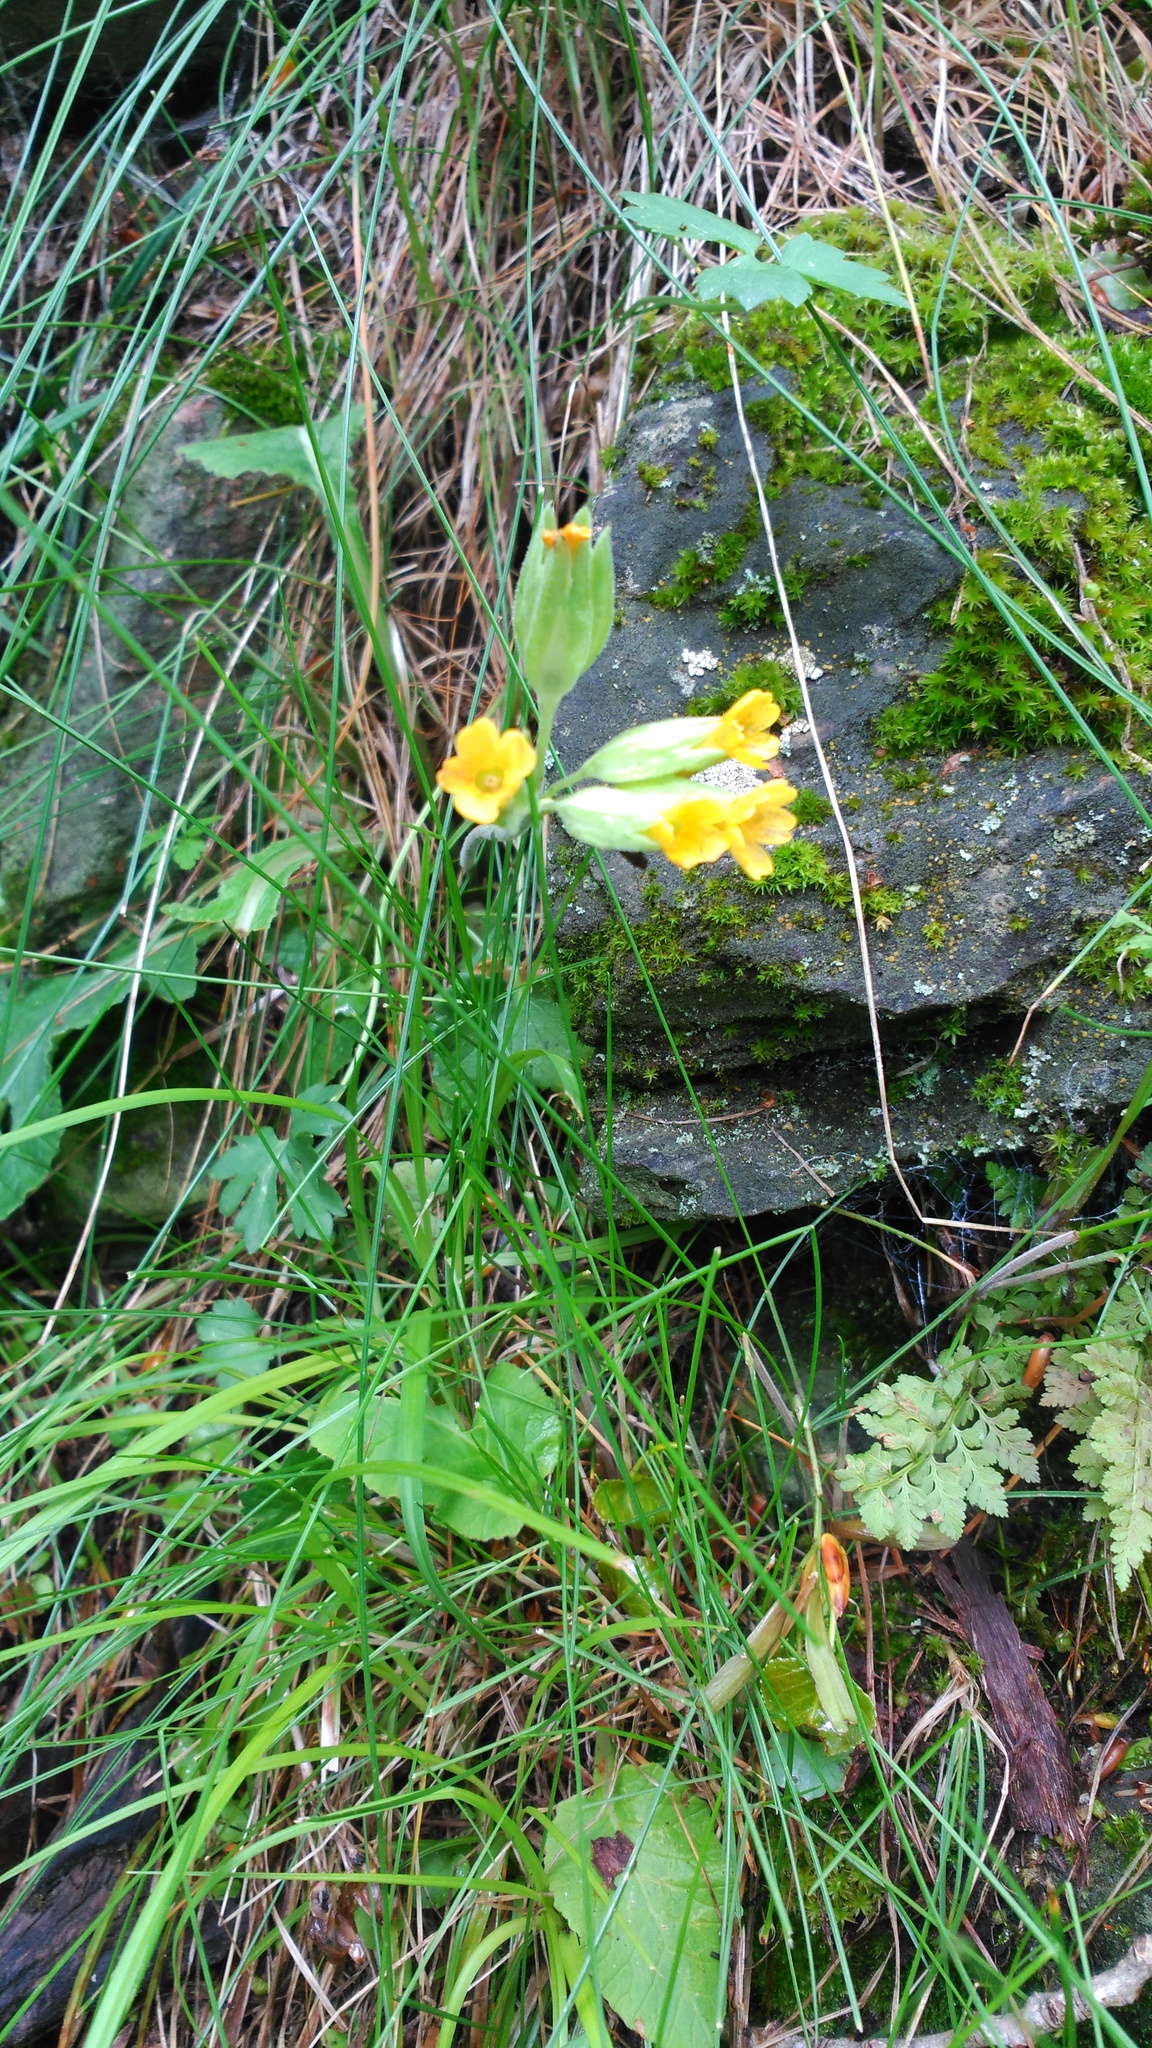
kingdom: Plantae
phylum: Tracheophyta
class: Magnoliopsida
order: Ericales
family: Primulaceae
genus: Primula
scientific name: Primula veris
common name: Cowslip
